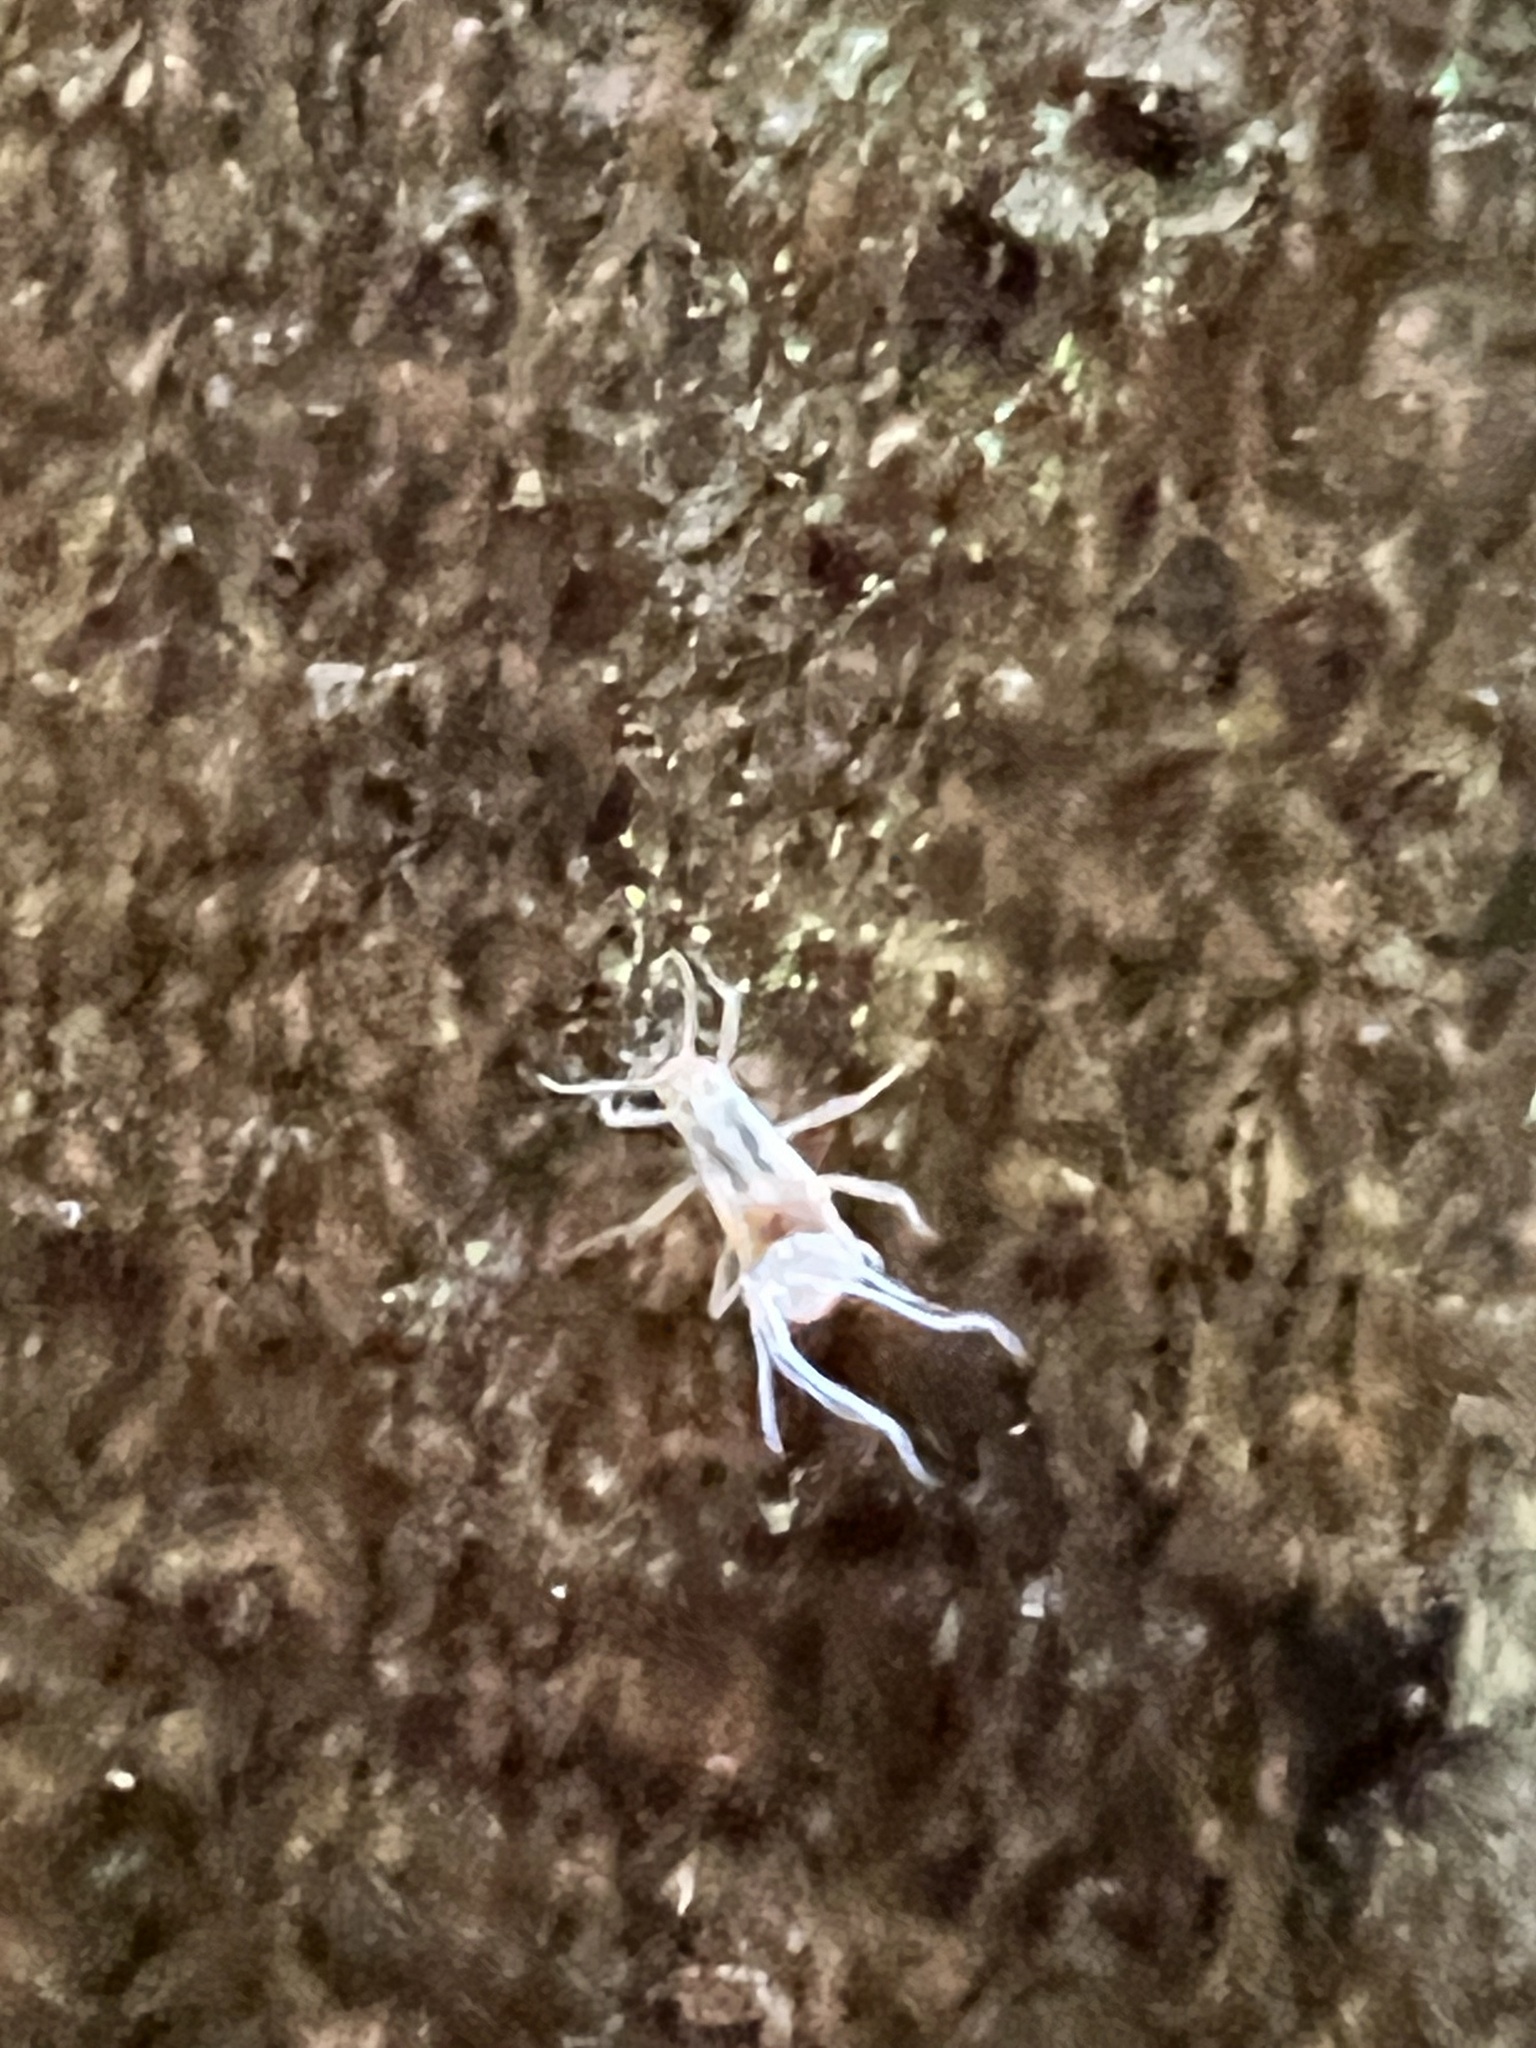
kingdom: Animalia
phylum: Arthropoda
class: Insecta
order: Hemiptera
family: Aphididae
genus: Grylloprociphilus
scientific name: Grylloprociphilus imbricator
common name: Beech blight aphid
